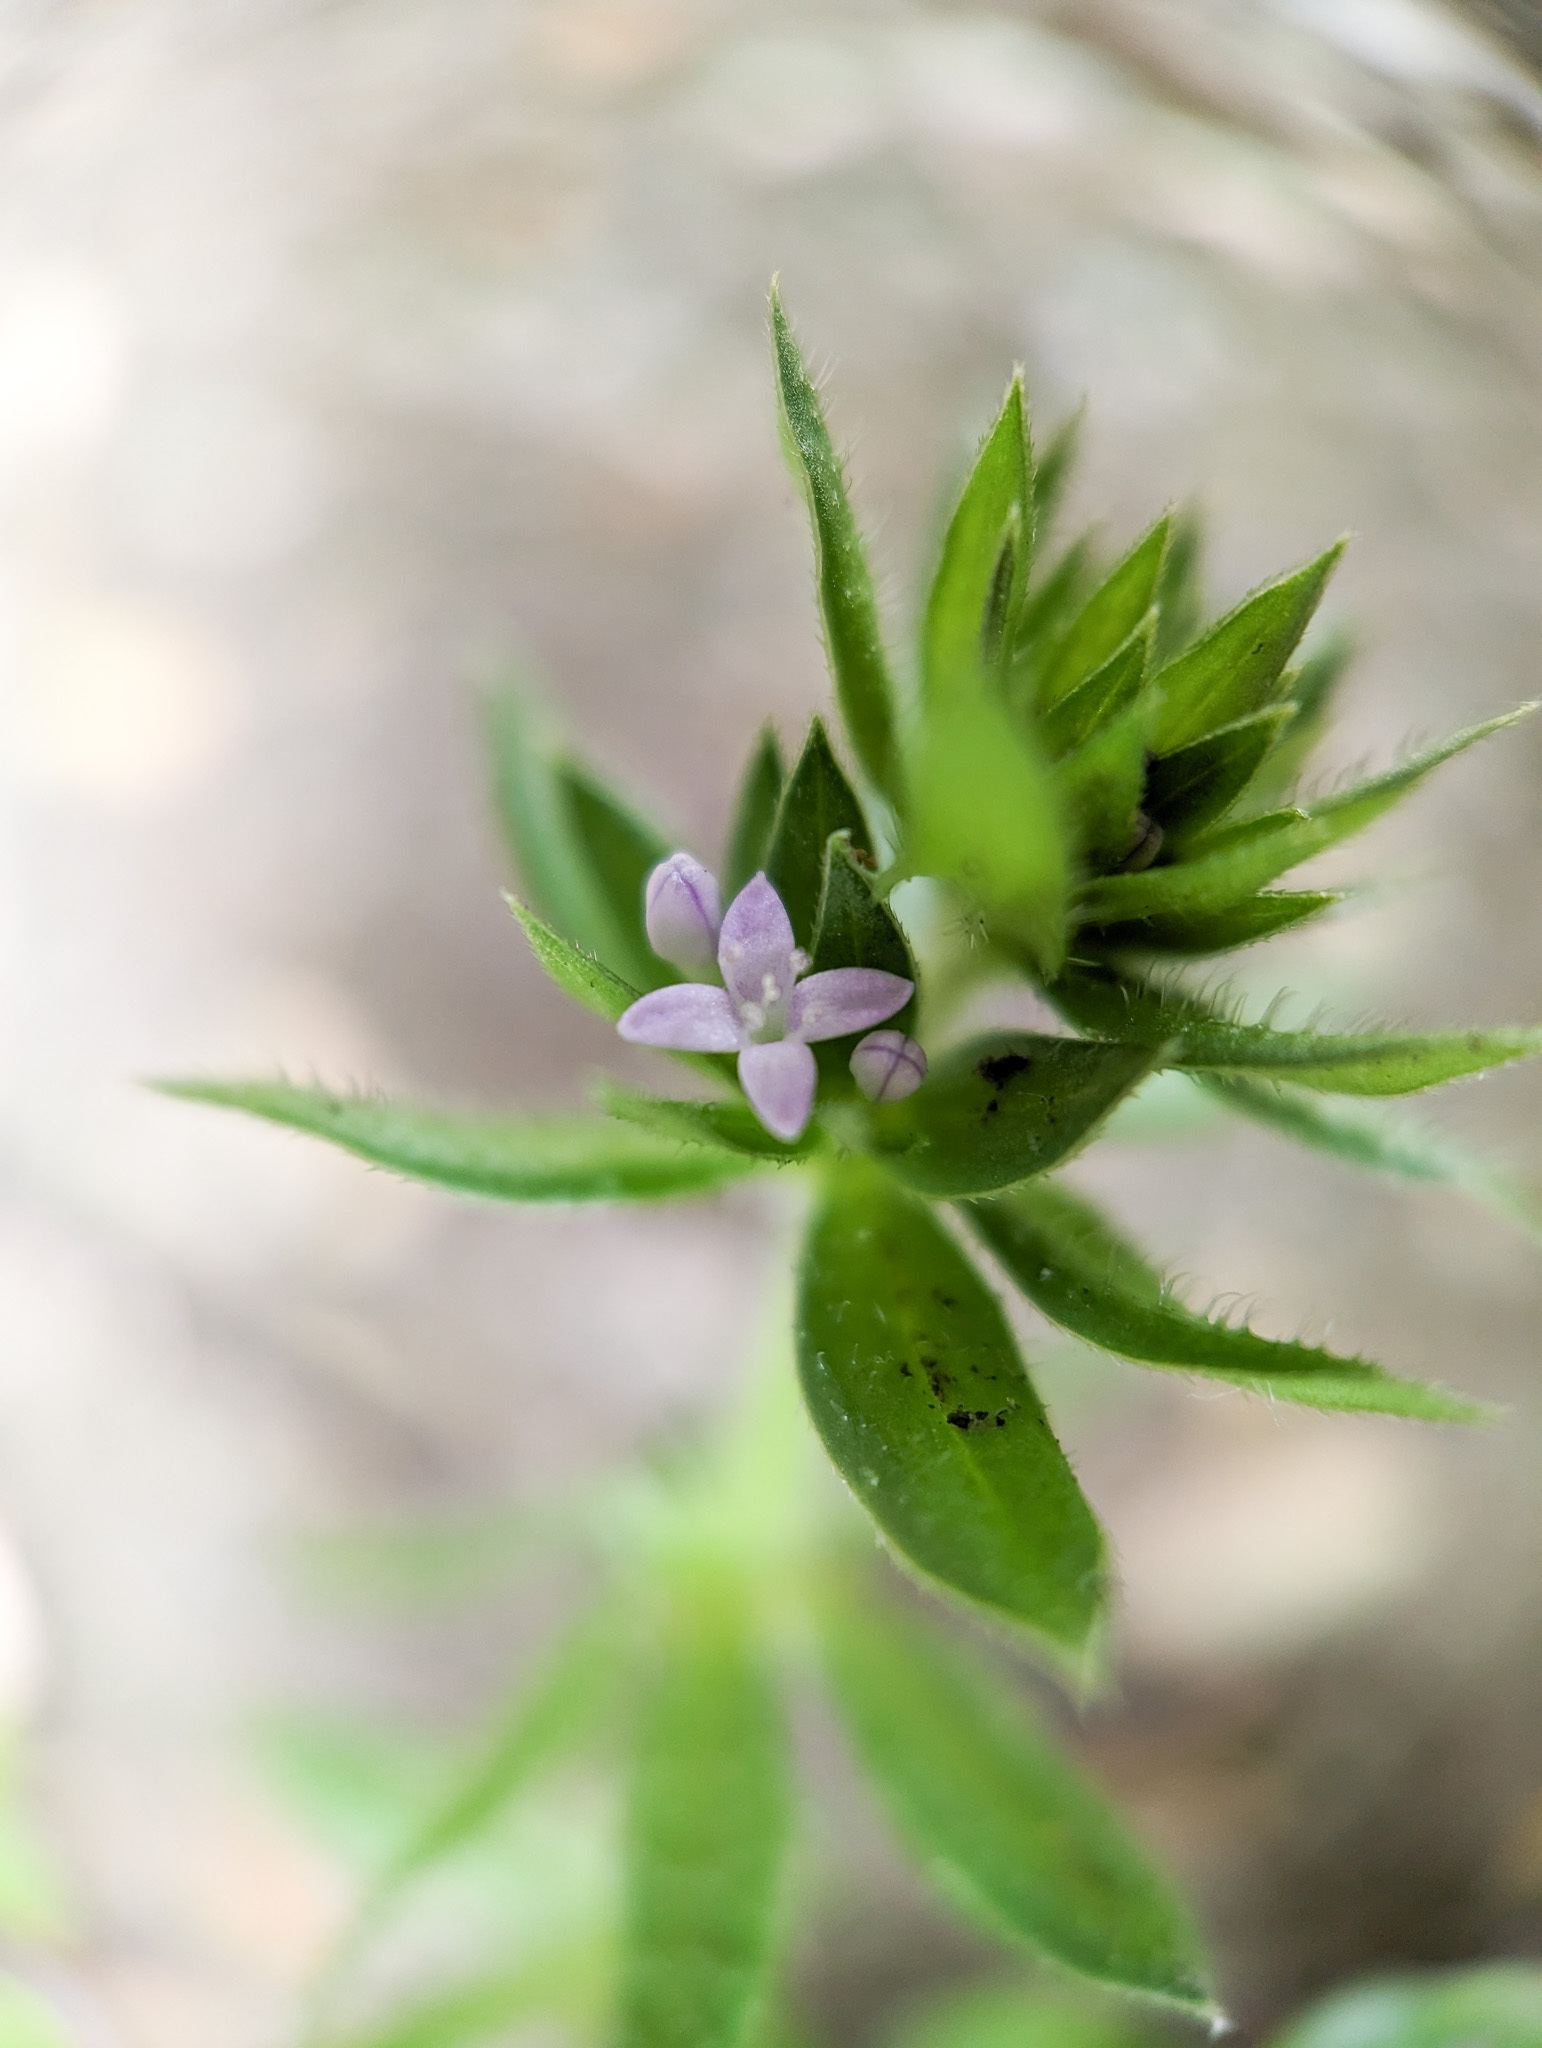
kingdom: Plantae
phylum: Tracheophyta
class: Magnoliopsida
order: Gentianales
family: Rubiaceae
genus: Sherardia
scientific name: Sherardia arvensis
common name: Field madder
